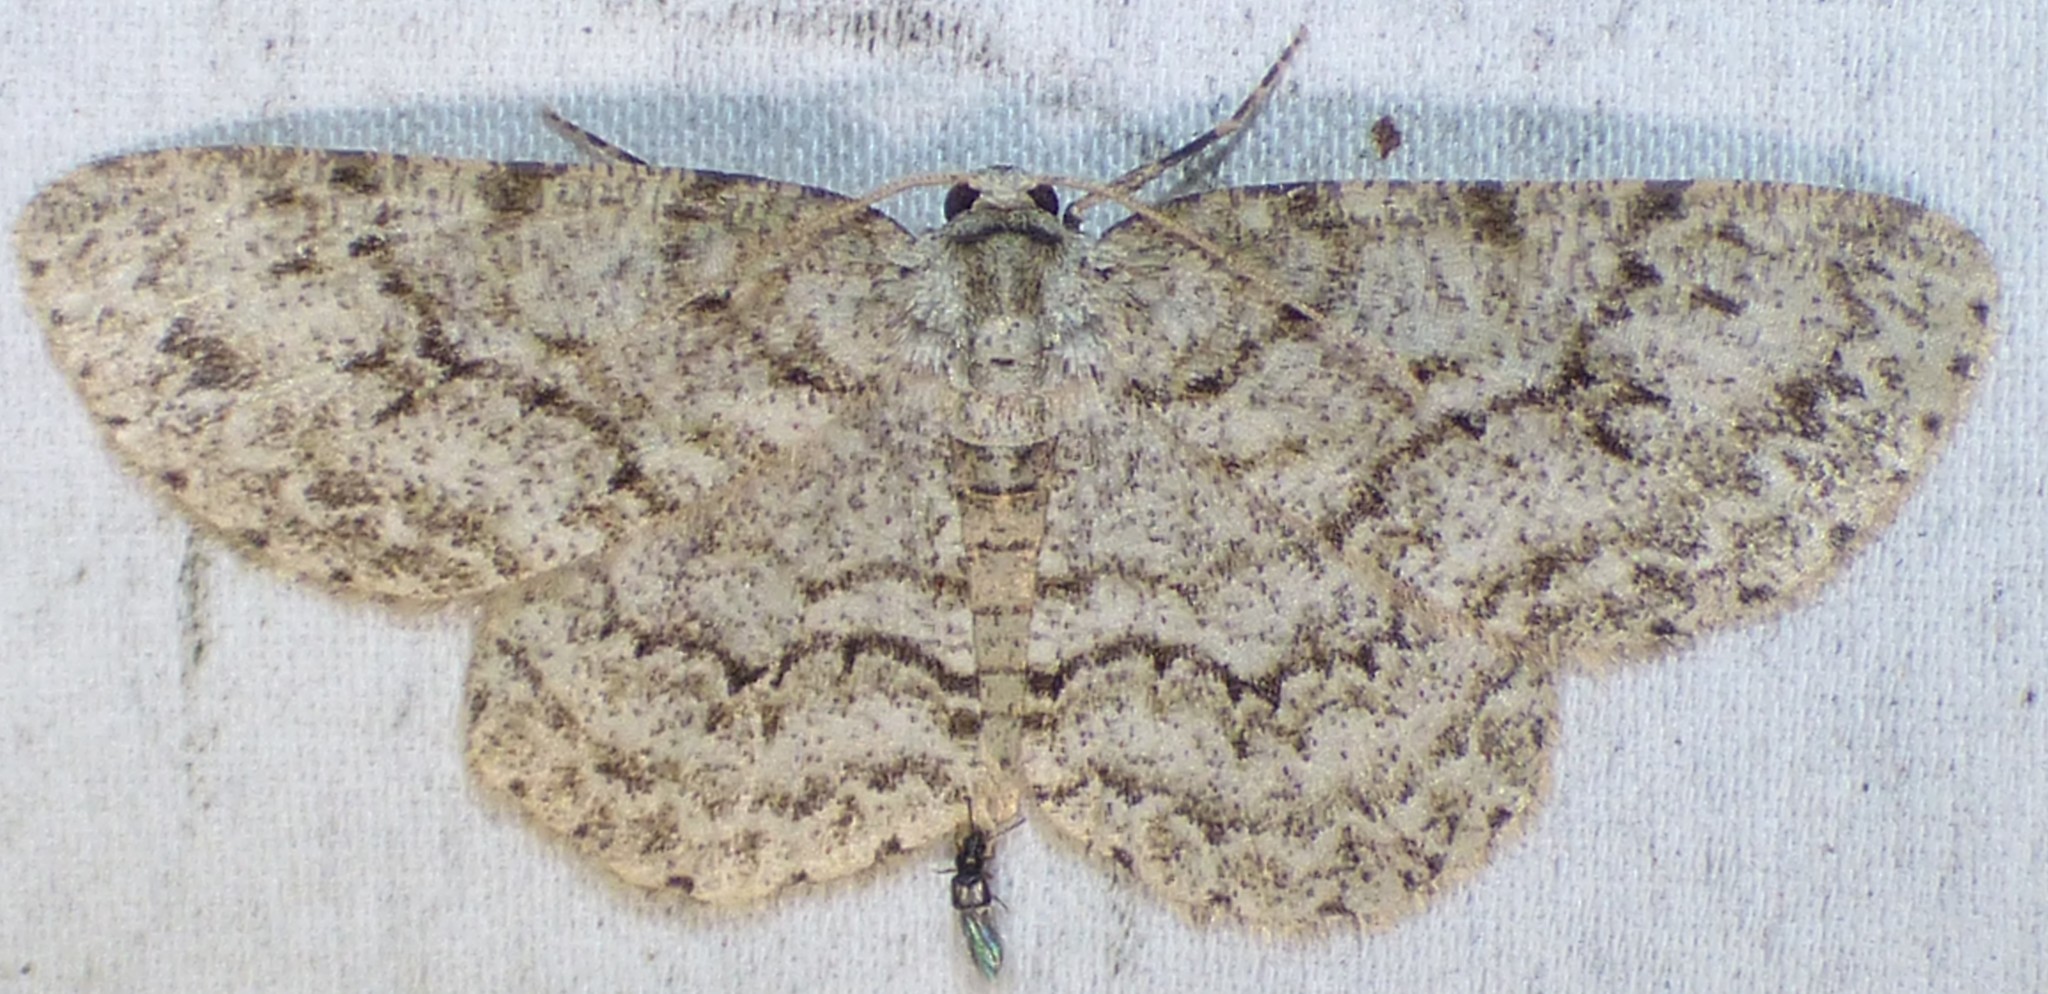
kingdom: Animalia
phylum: Arthropoda
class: Insecta
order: Lepidoptera
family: Geometridae
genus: Ectropis
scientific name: Ectropis crepuscularia
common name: Engrailed
